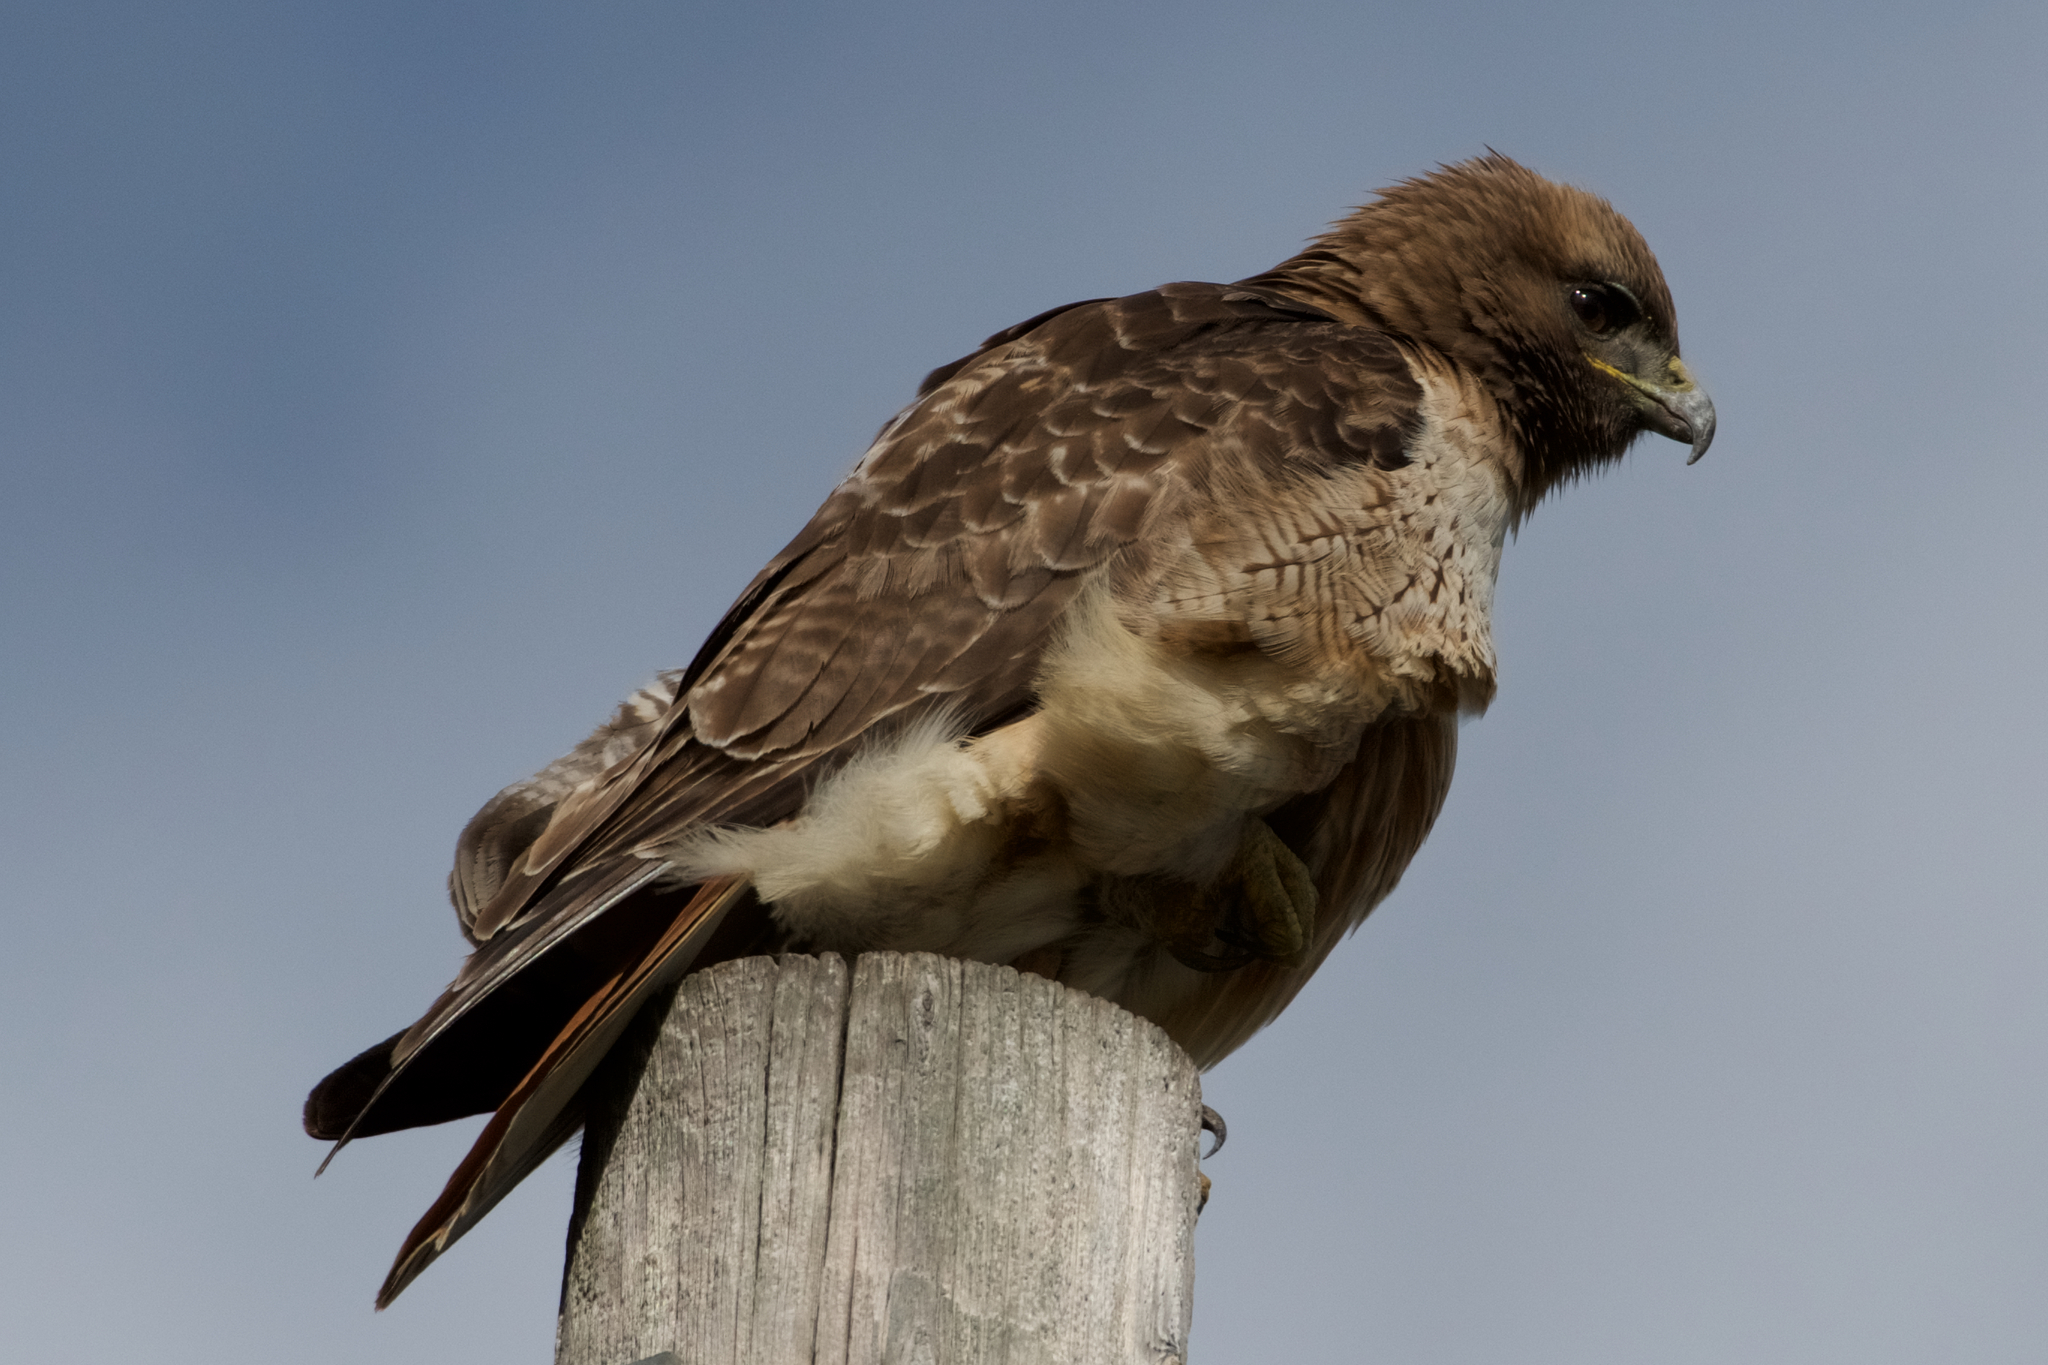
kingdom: Animalia
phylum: Chordata
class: Aves
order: Accipitriformes
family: Accipitridae
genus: Buteo
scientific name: Buteo jamaicensis
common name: Red-tailed hawk
